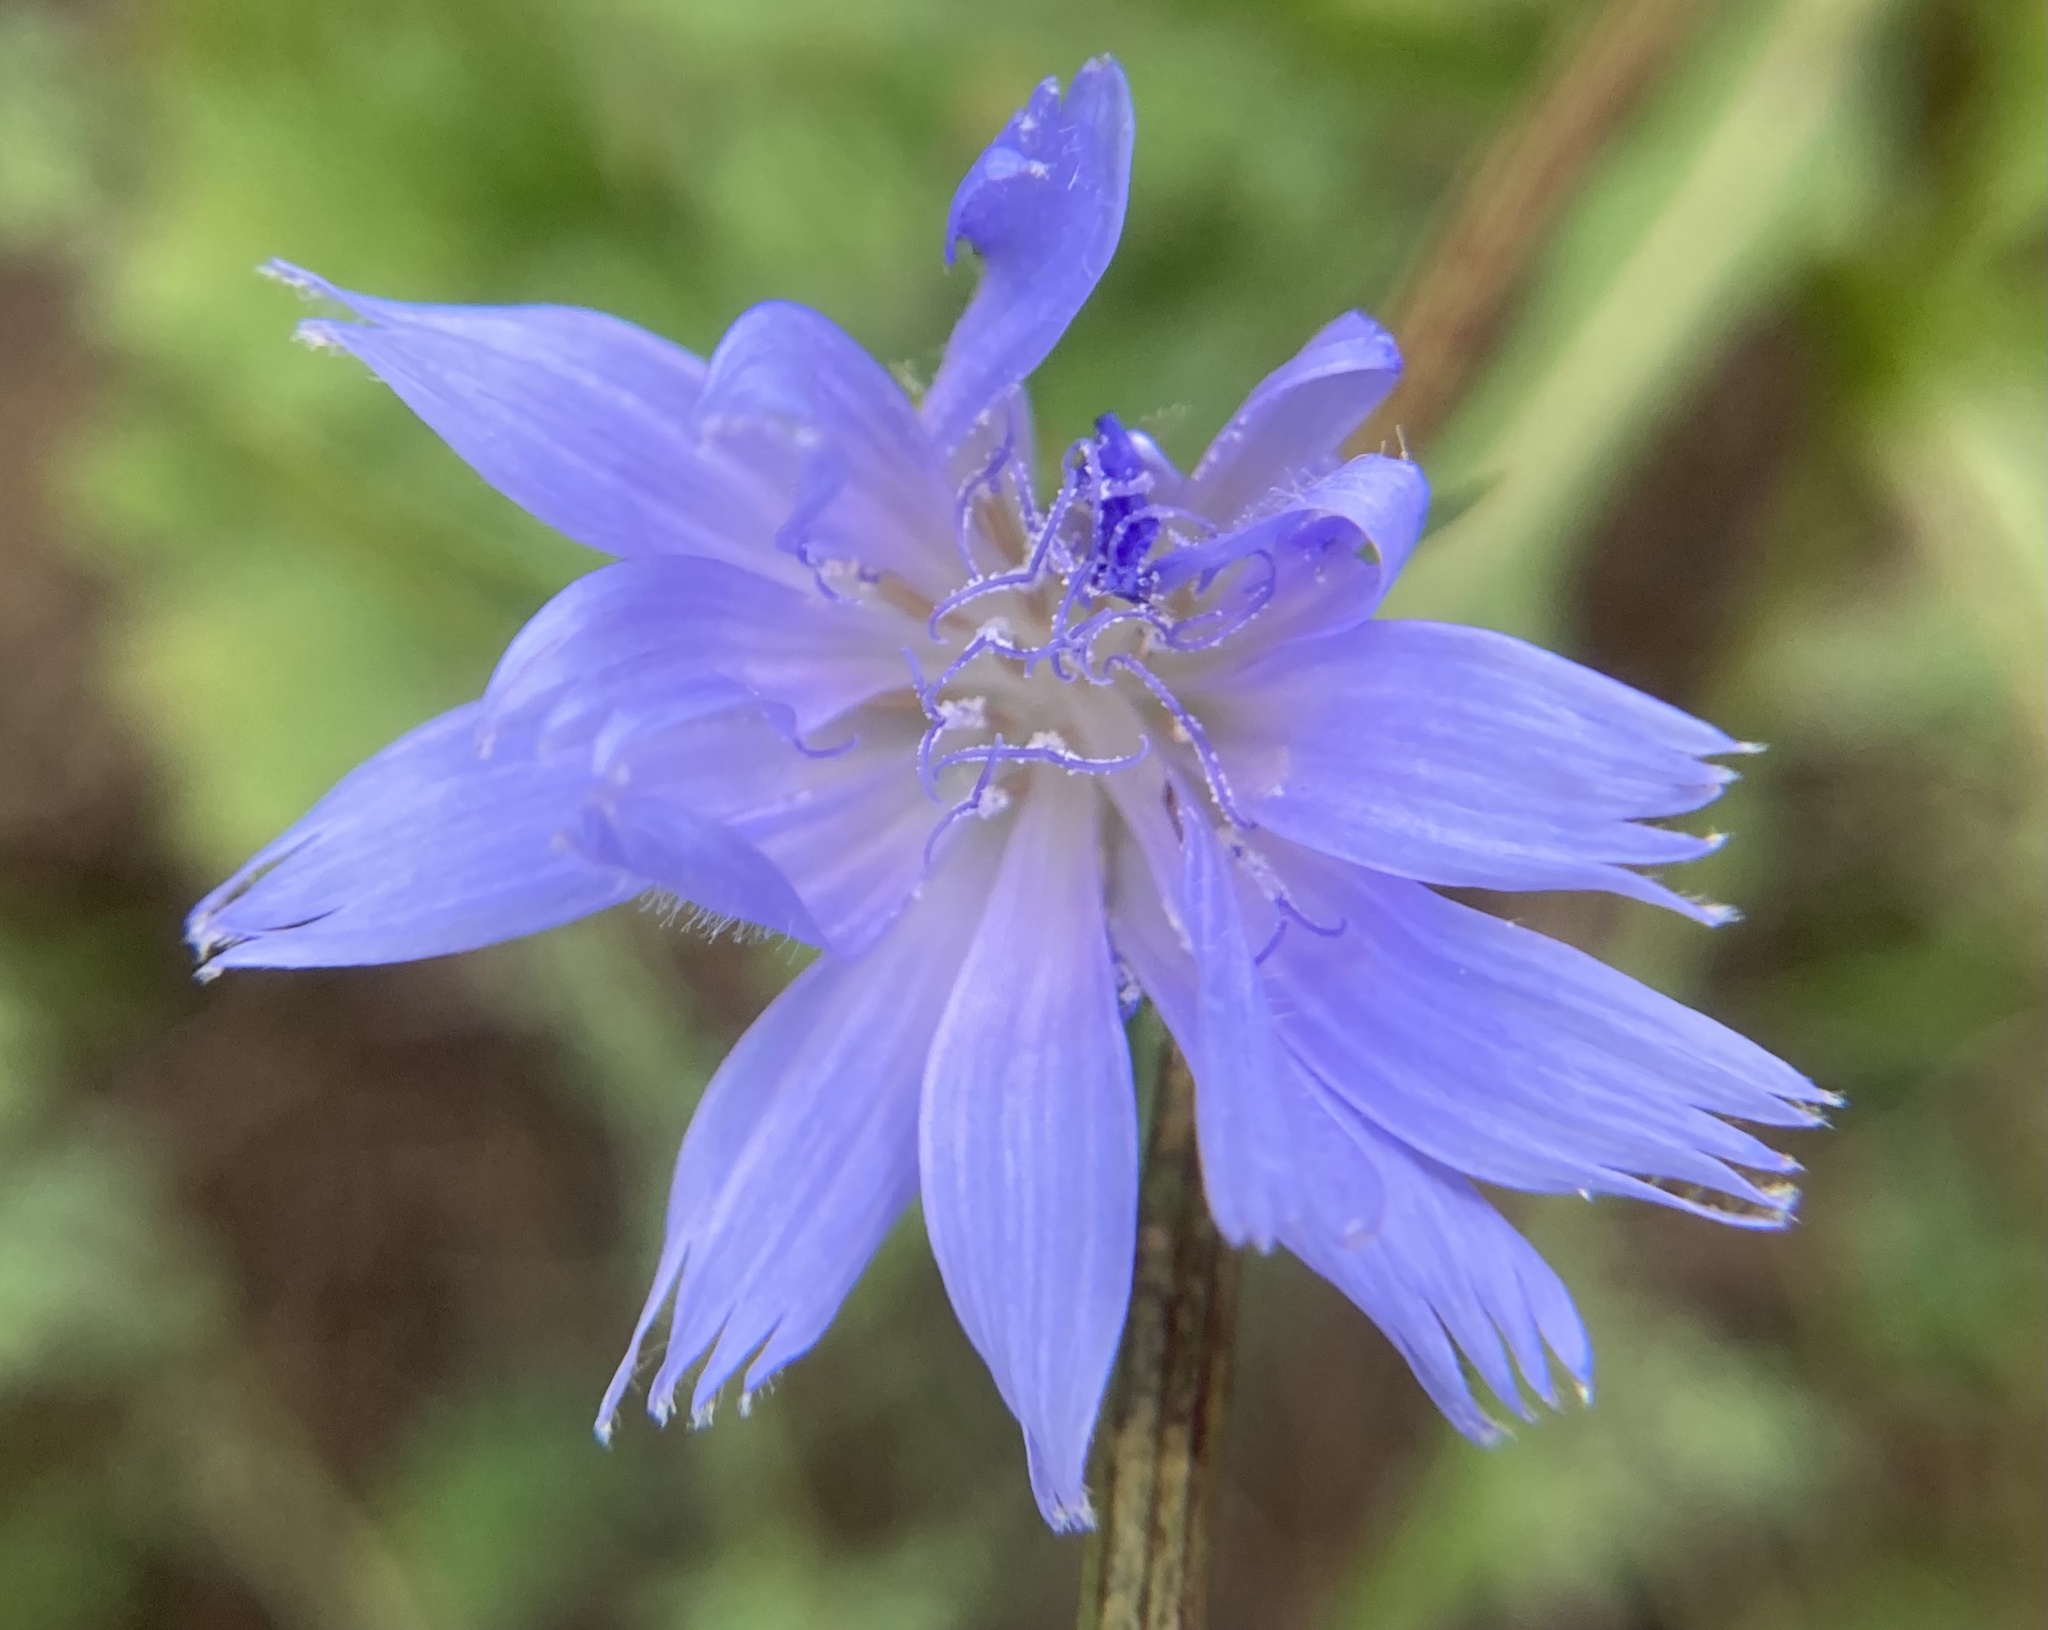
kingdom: Plantae
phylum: Tracheophyta
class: Magnoliopsida
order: Asterales
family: Asteraceae
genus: Cichorium
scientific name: Cichorium intybus
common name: Chicory
